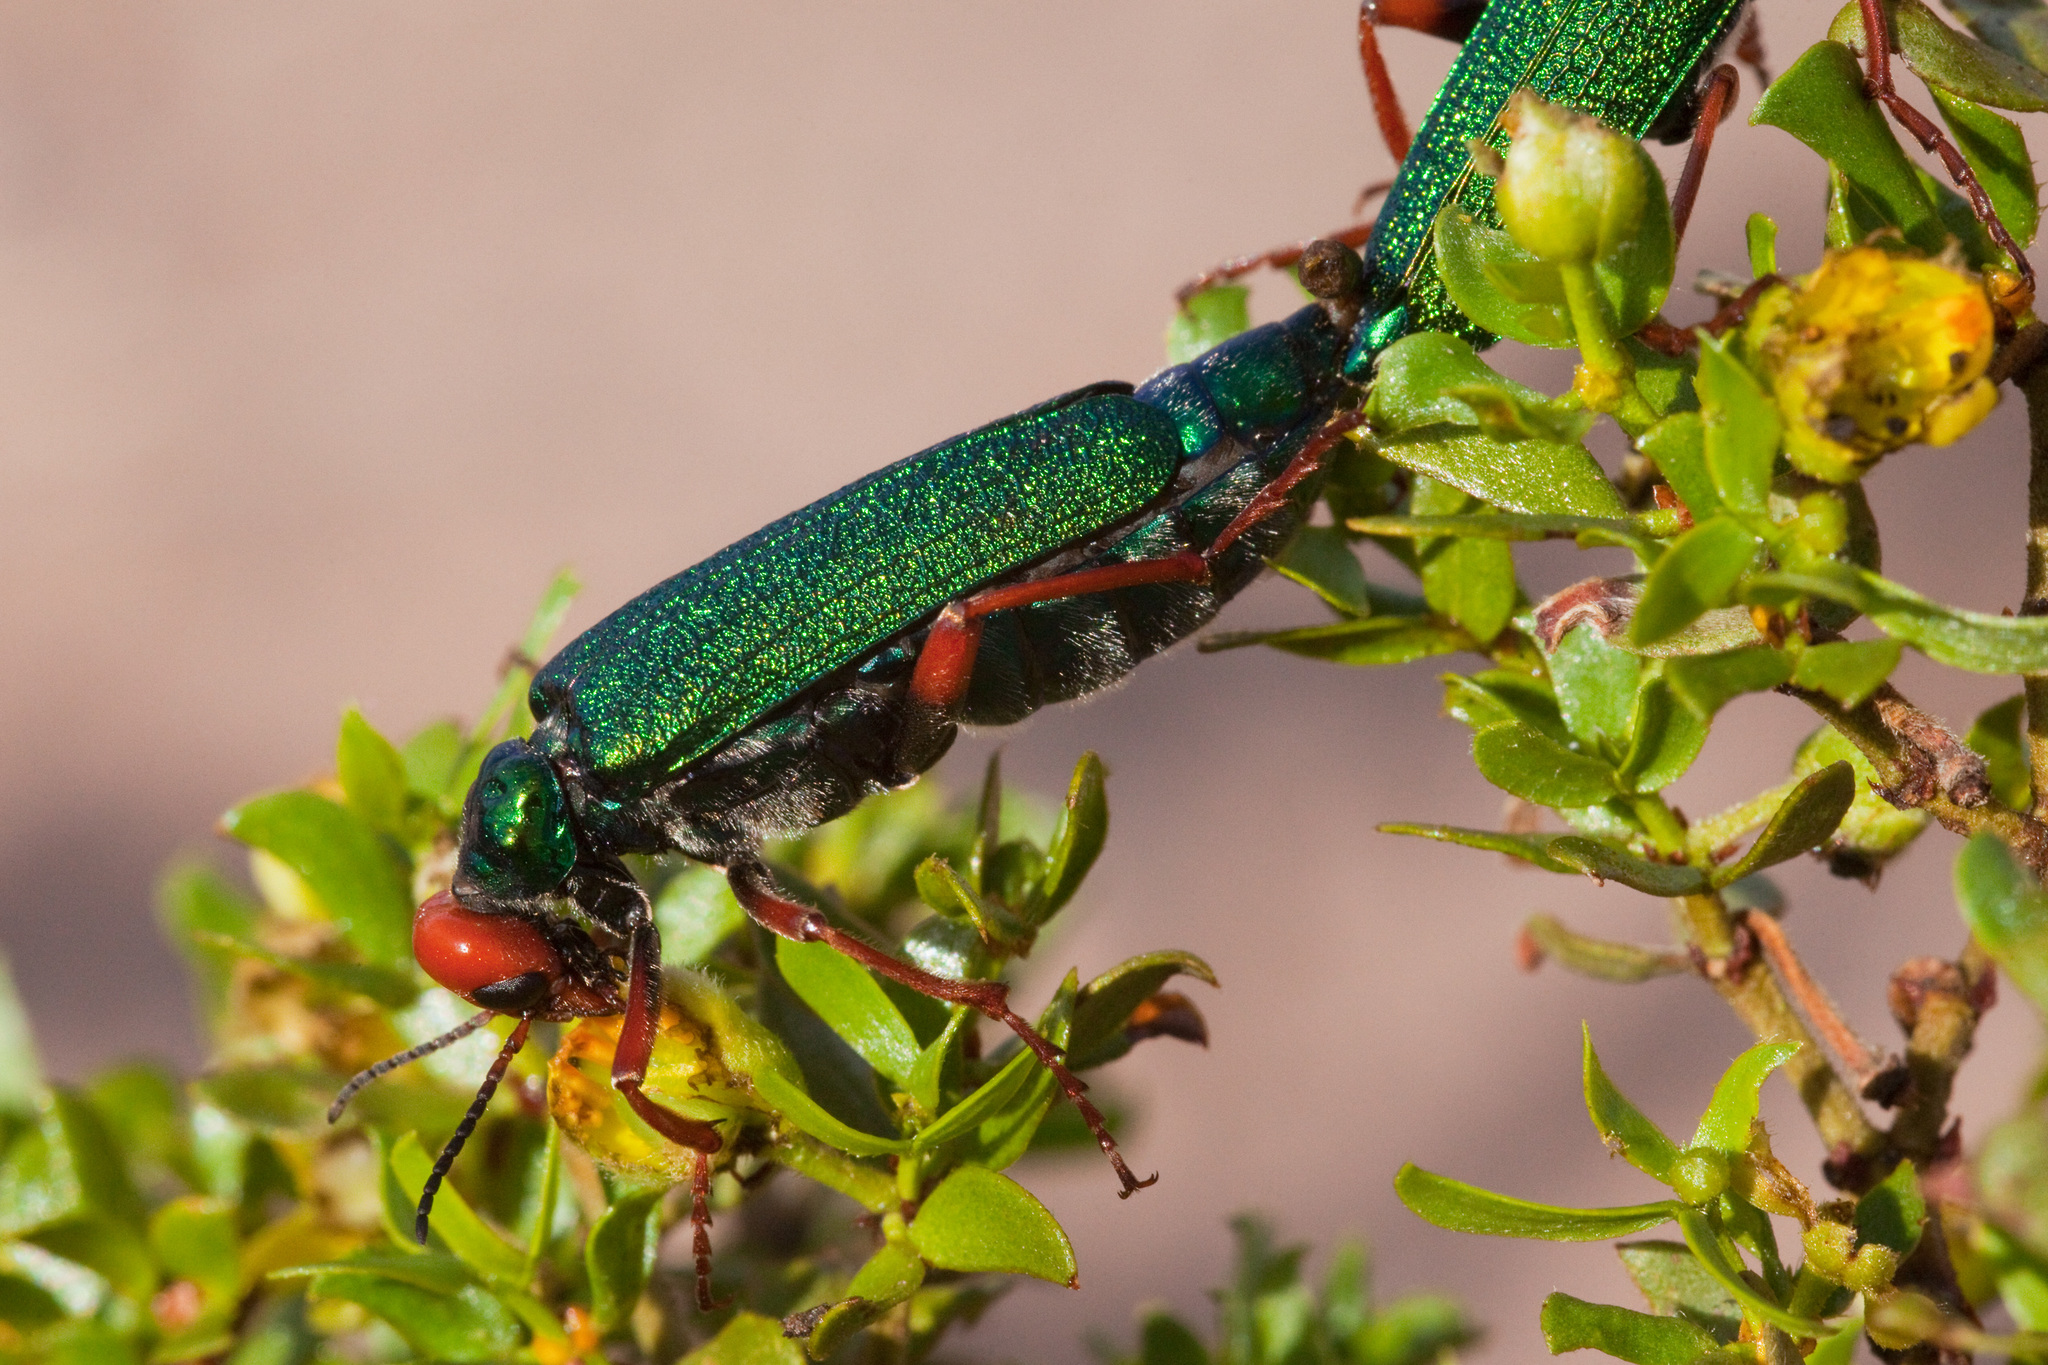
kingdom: Animalia
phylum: Arthropoda
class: Insecta
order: Coleoptera
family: Meloidae
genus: Eupompha
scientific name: Eupompha fissiceps
